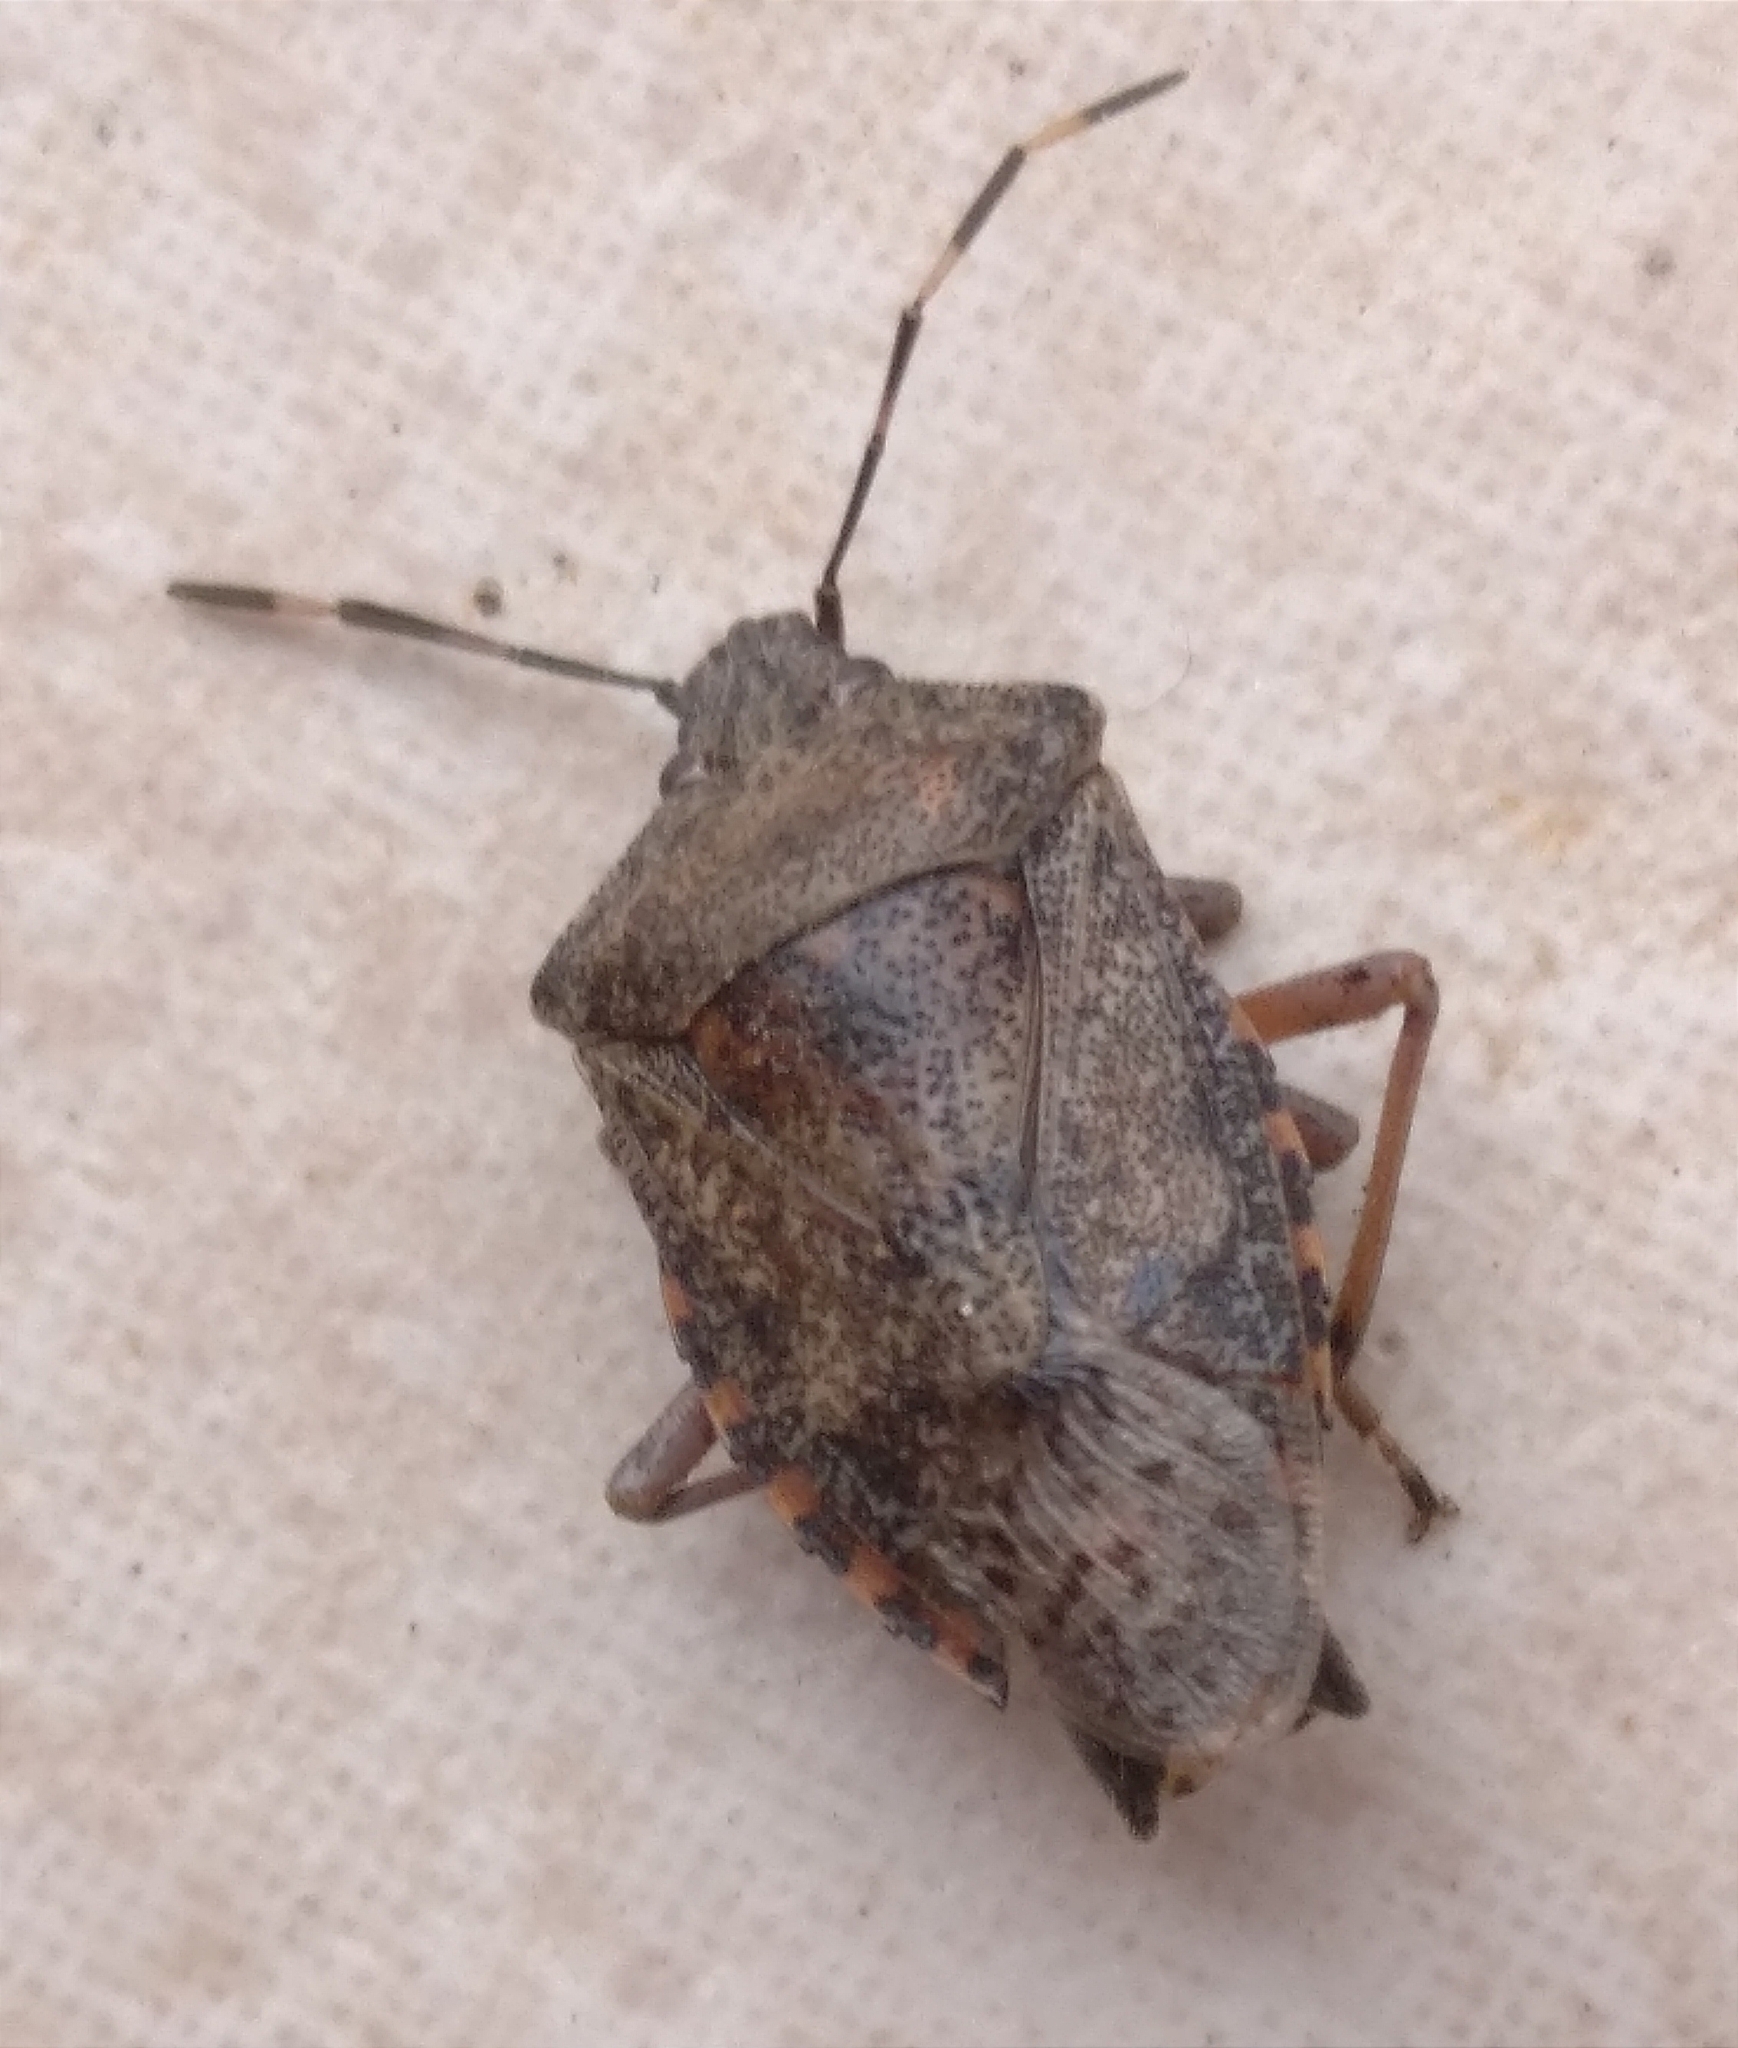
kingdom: Animalia
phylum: Arthropoda
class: Insecta
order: Hemiptera
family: Pentatomidae
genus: Rhaphigaster
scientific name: Rhaphigaster nebulosa
